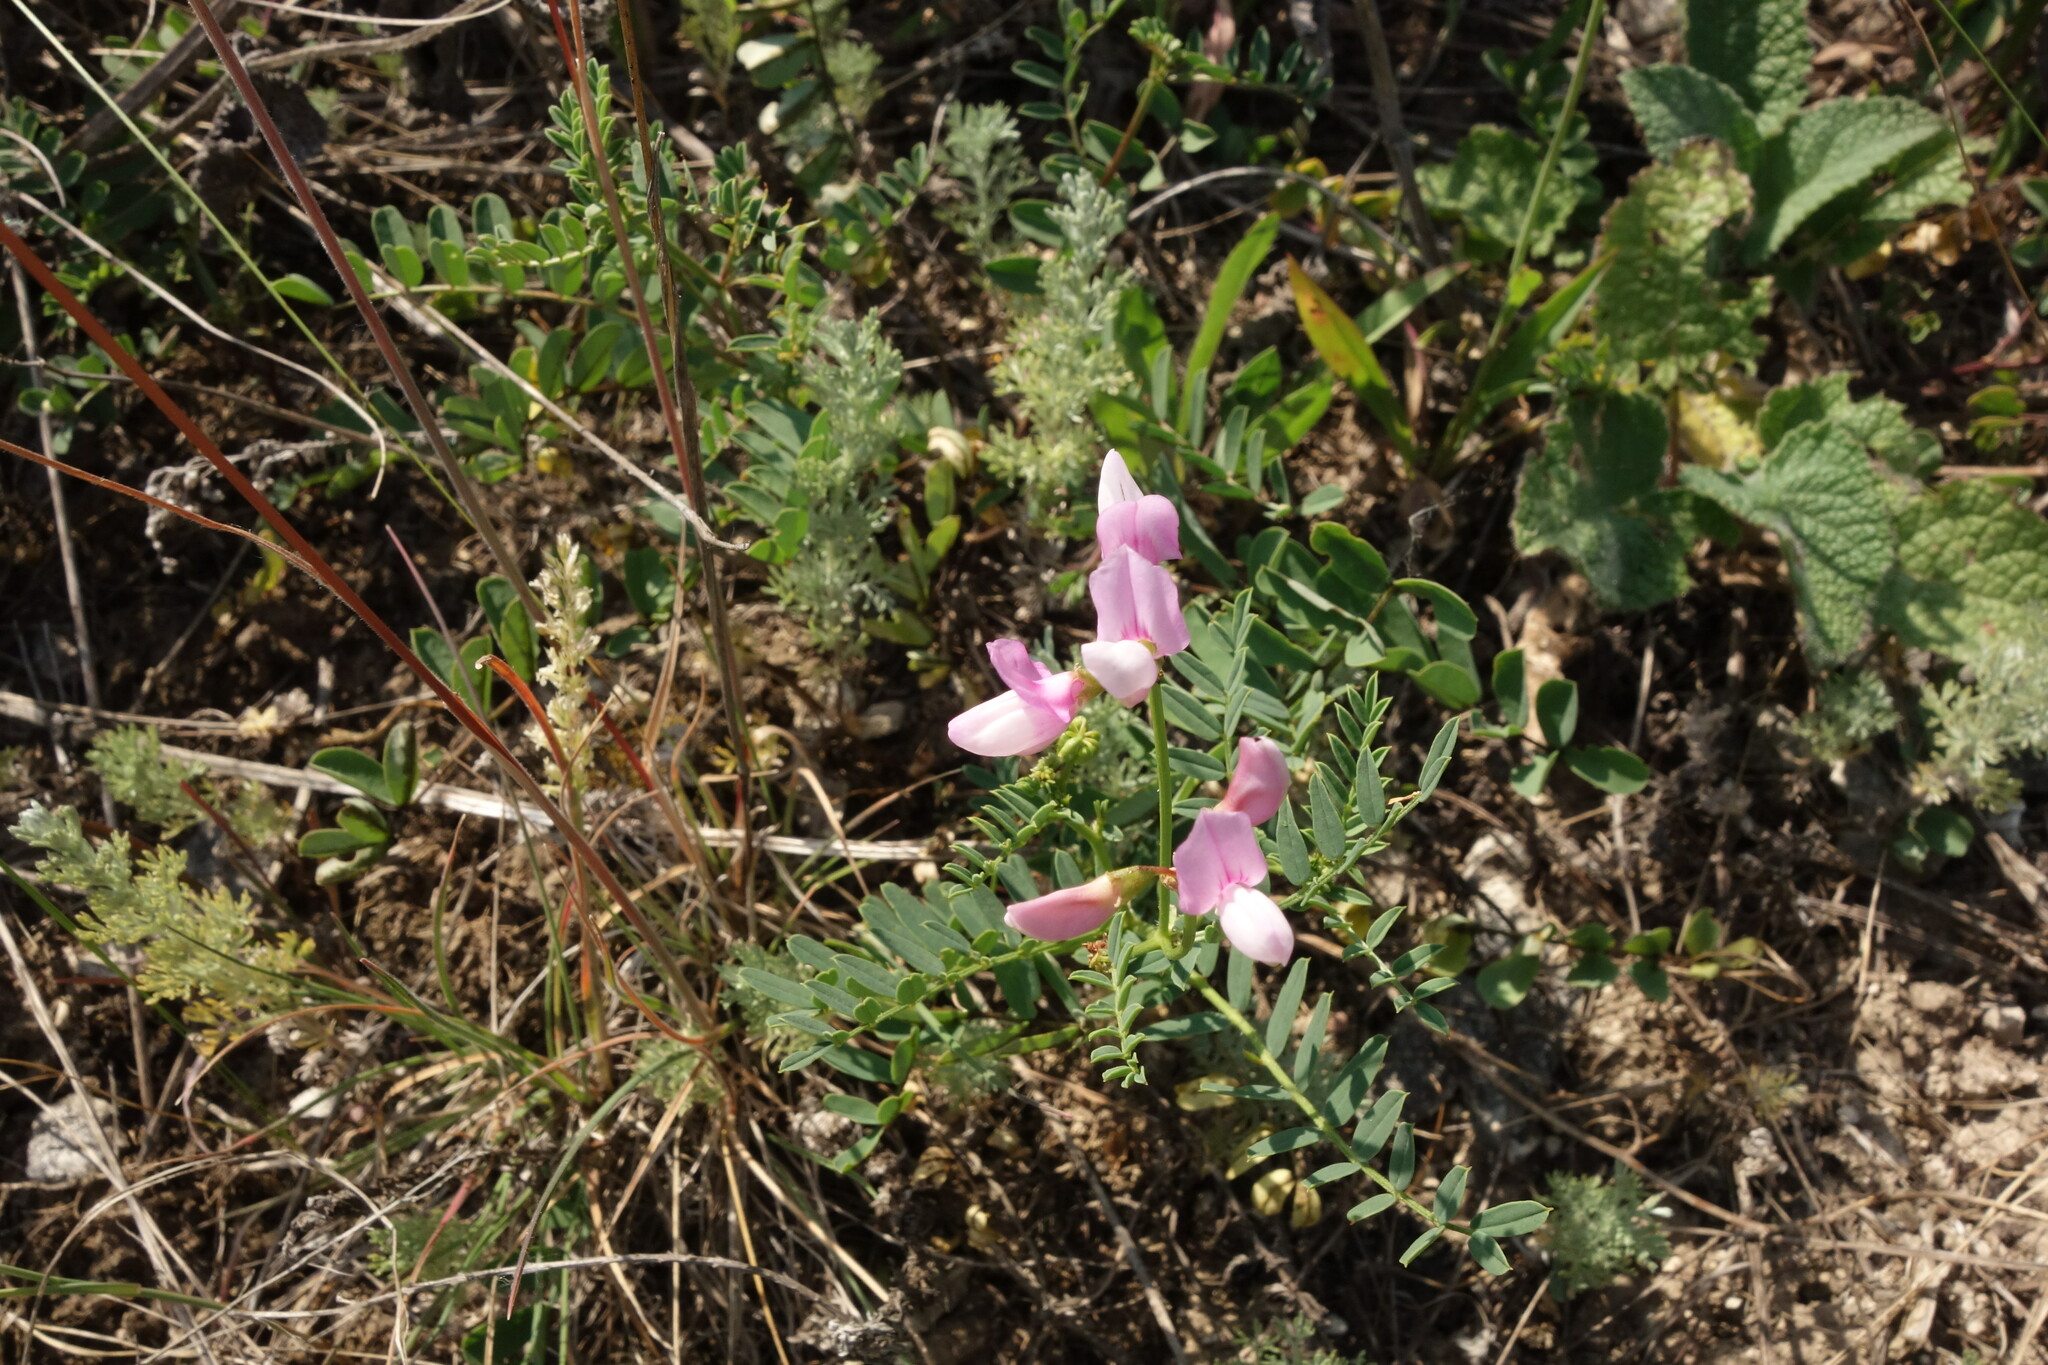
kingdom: Plantae
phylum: Tracheophyta
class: Magnoliopsida
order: Fabales
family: Fabaceae
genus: Coronilla
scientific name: Coronilla varia
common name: Crownvetch
